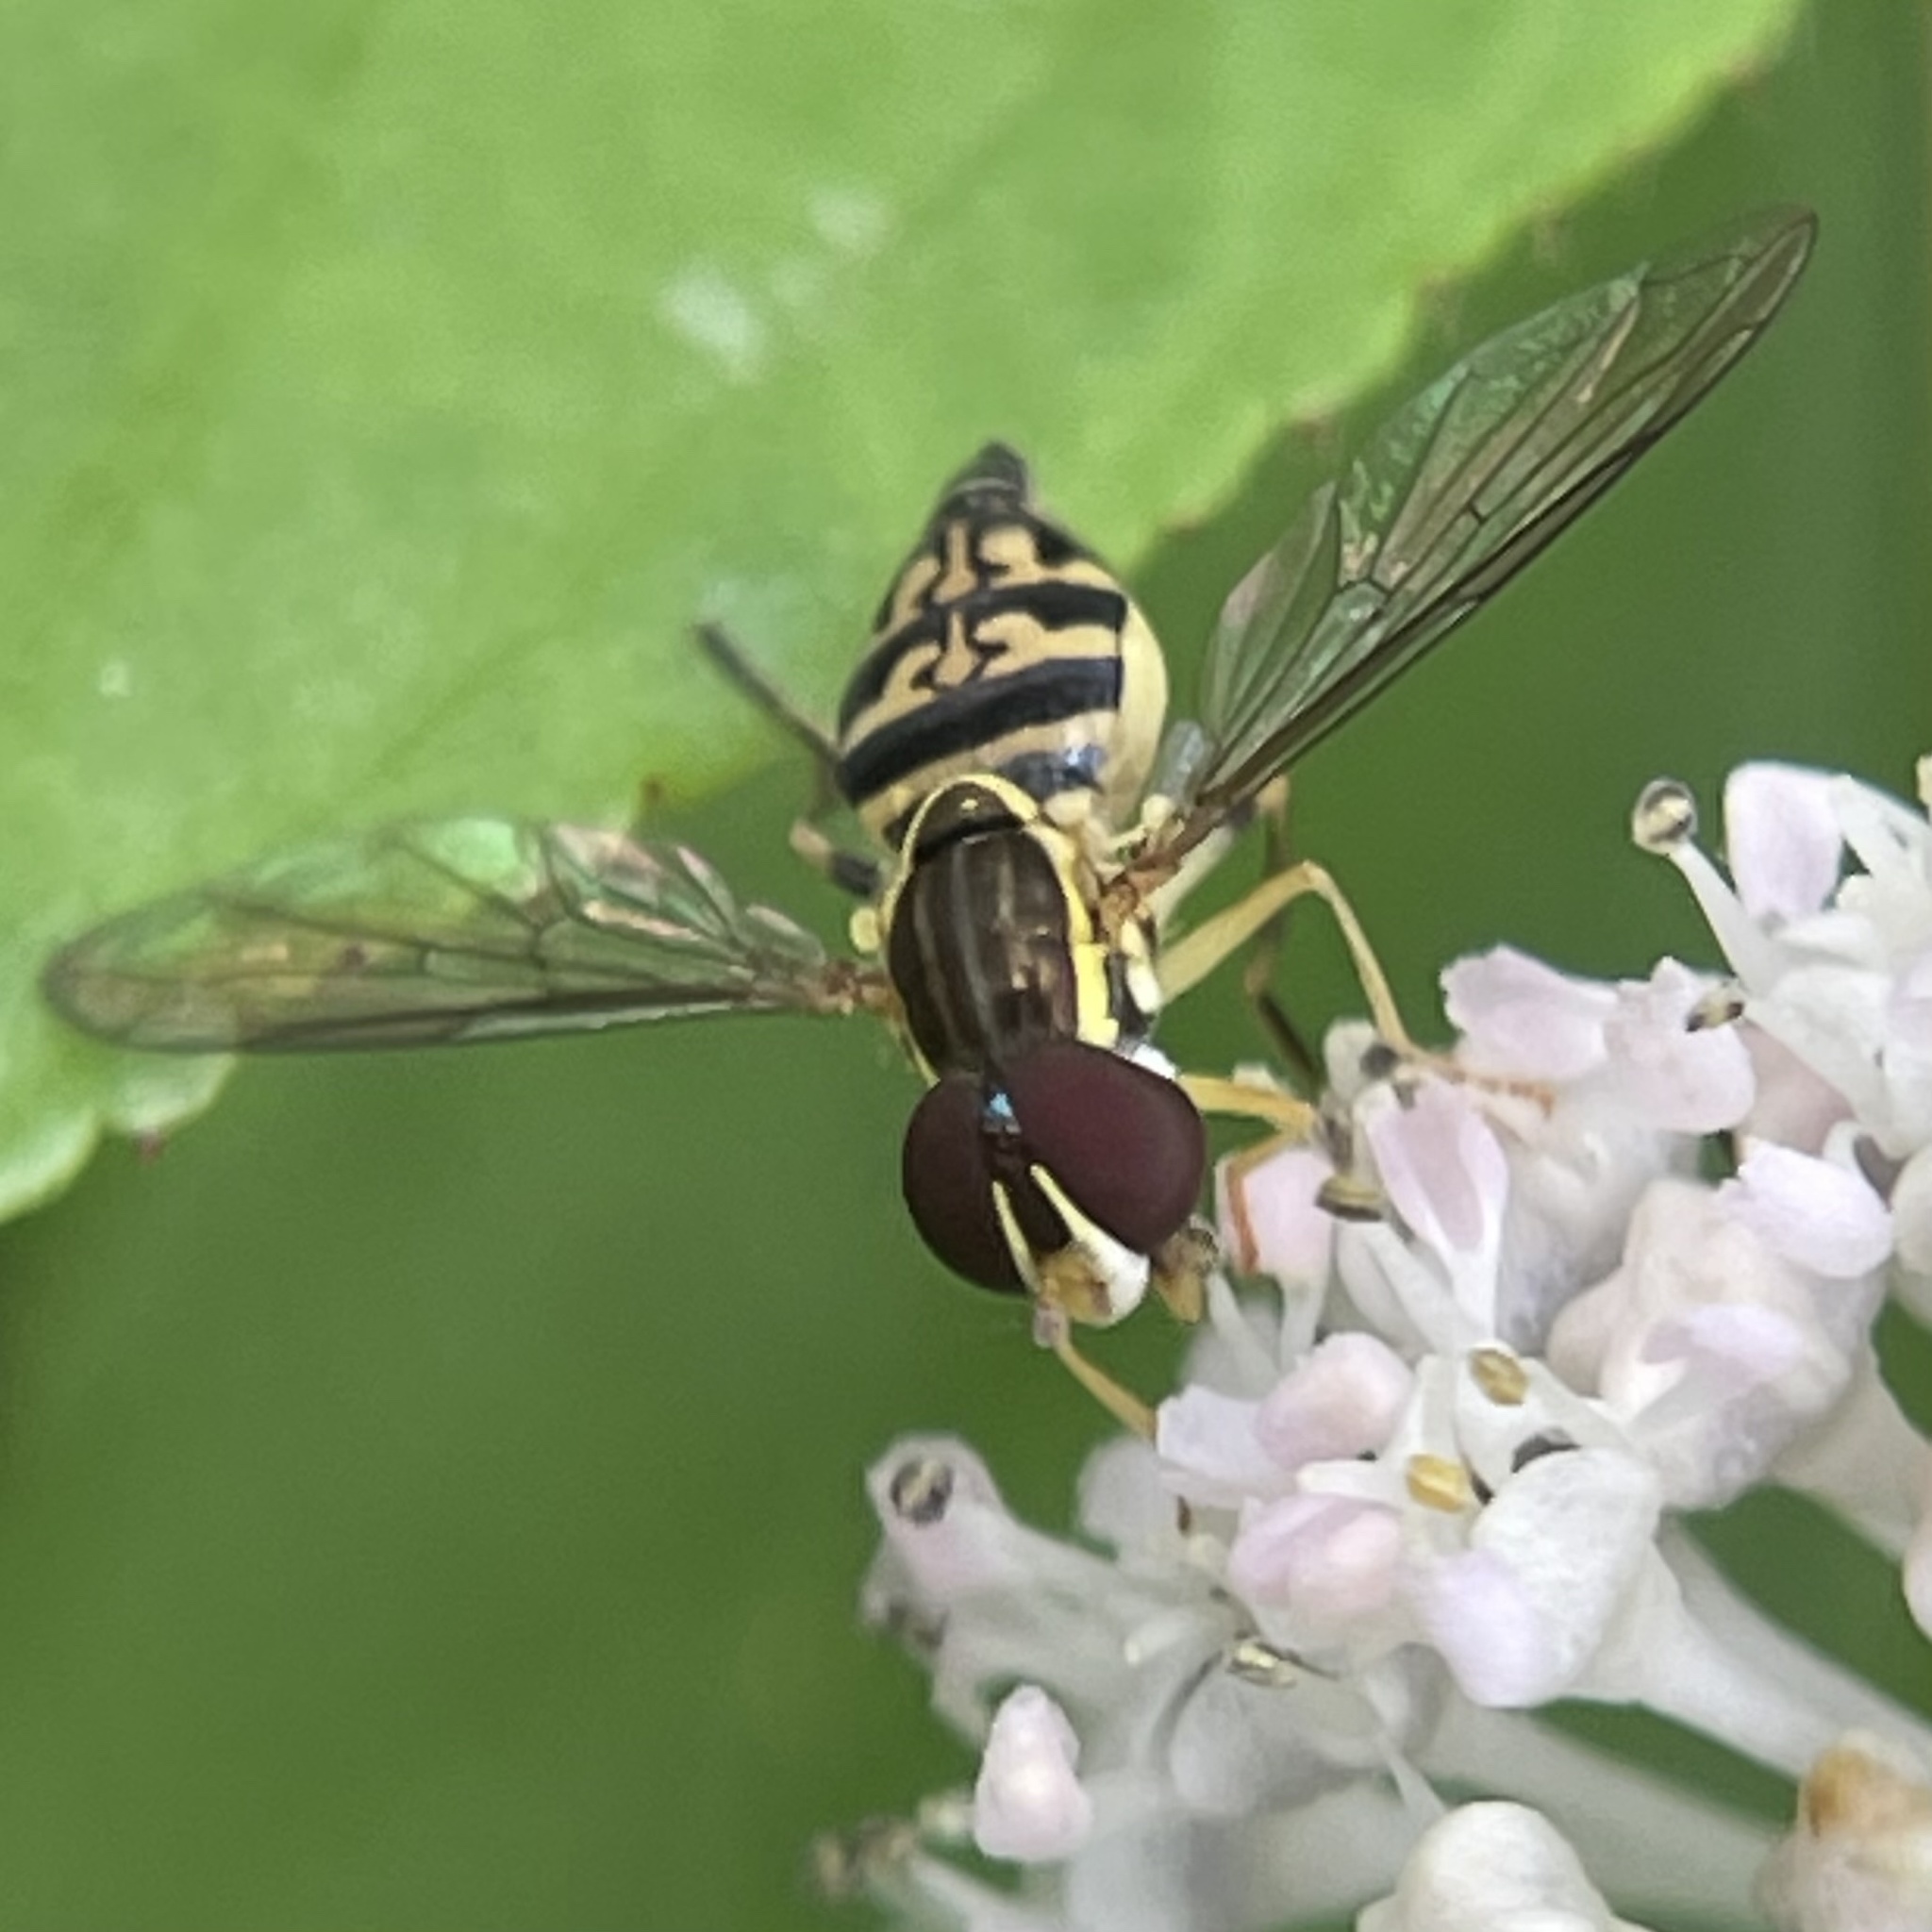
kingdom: Animalia
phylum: Arthropoda
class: Insecta
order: Diptera
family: Syrphidae
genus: Toxomerus
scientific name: Toxomerus geminatus
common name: Eastern calligrapher
